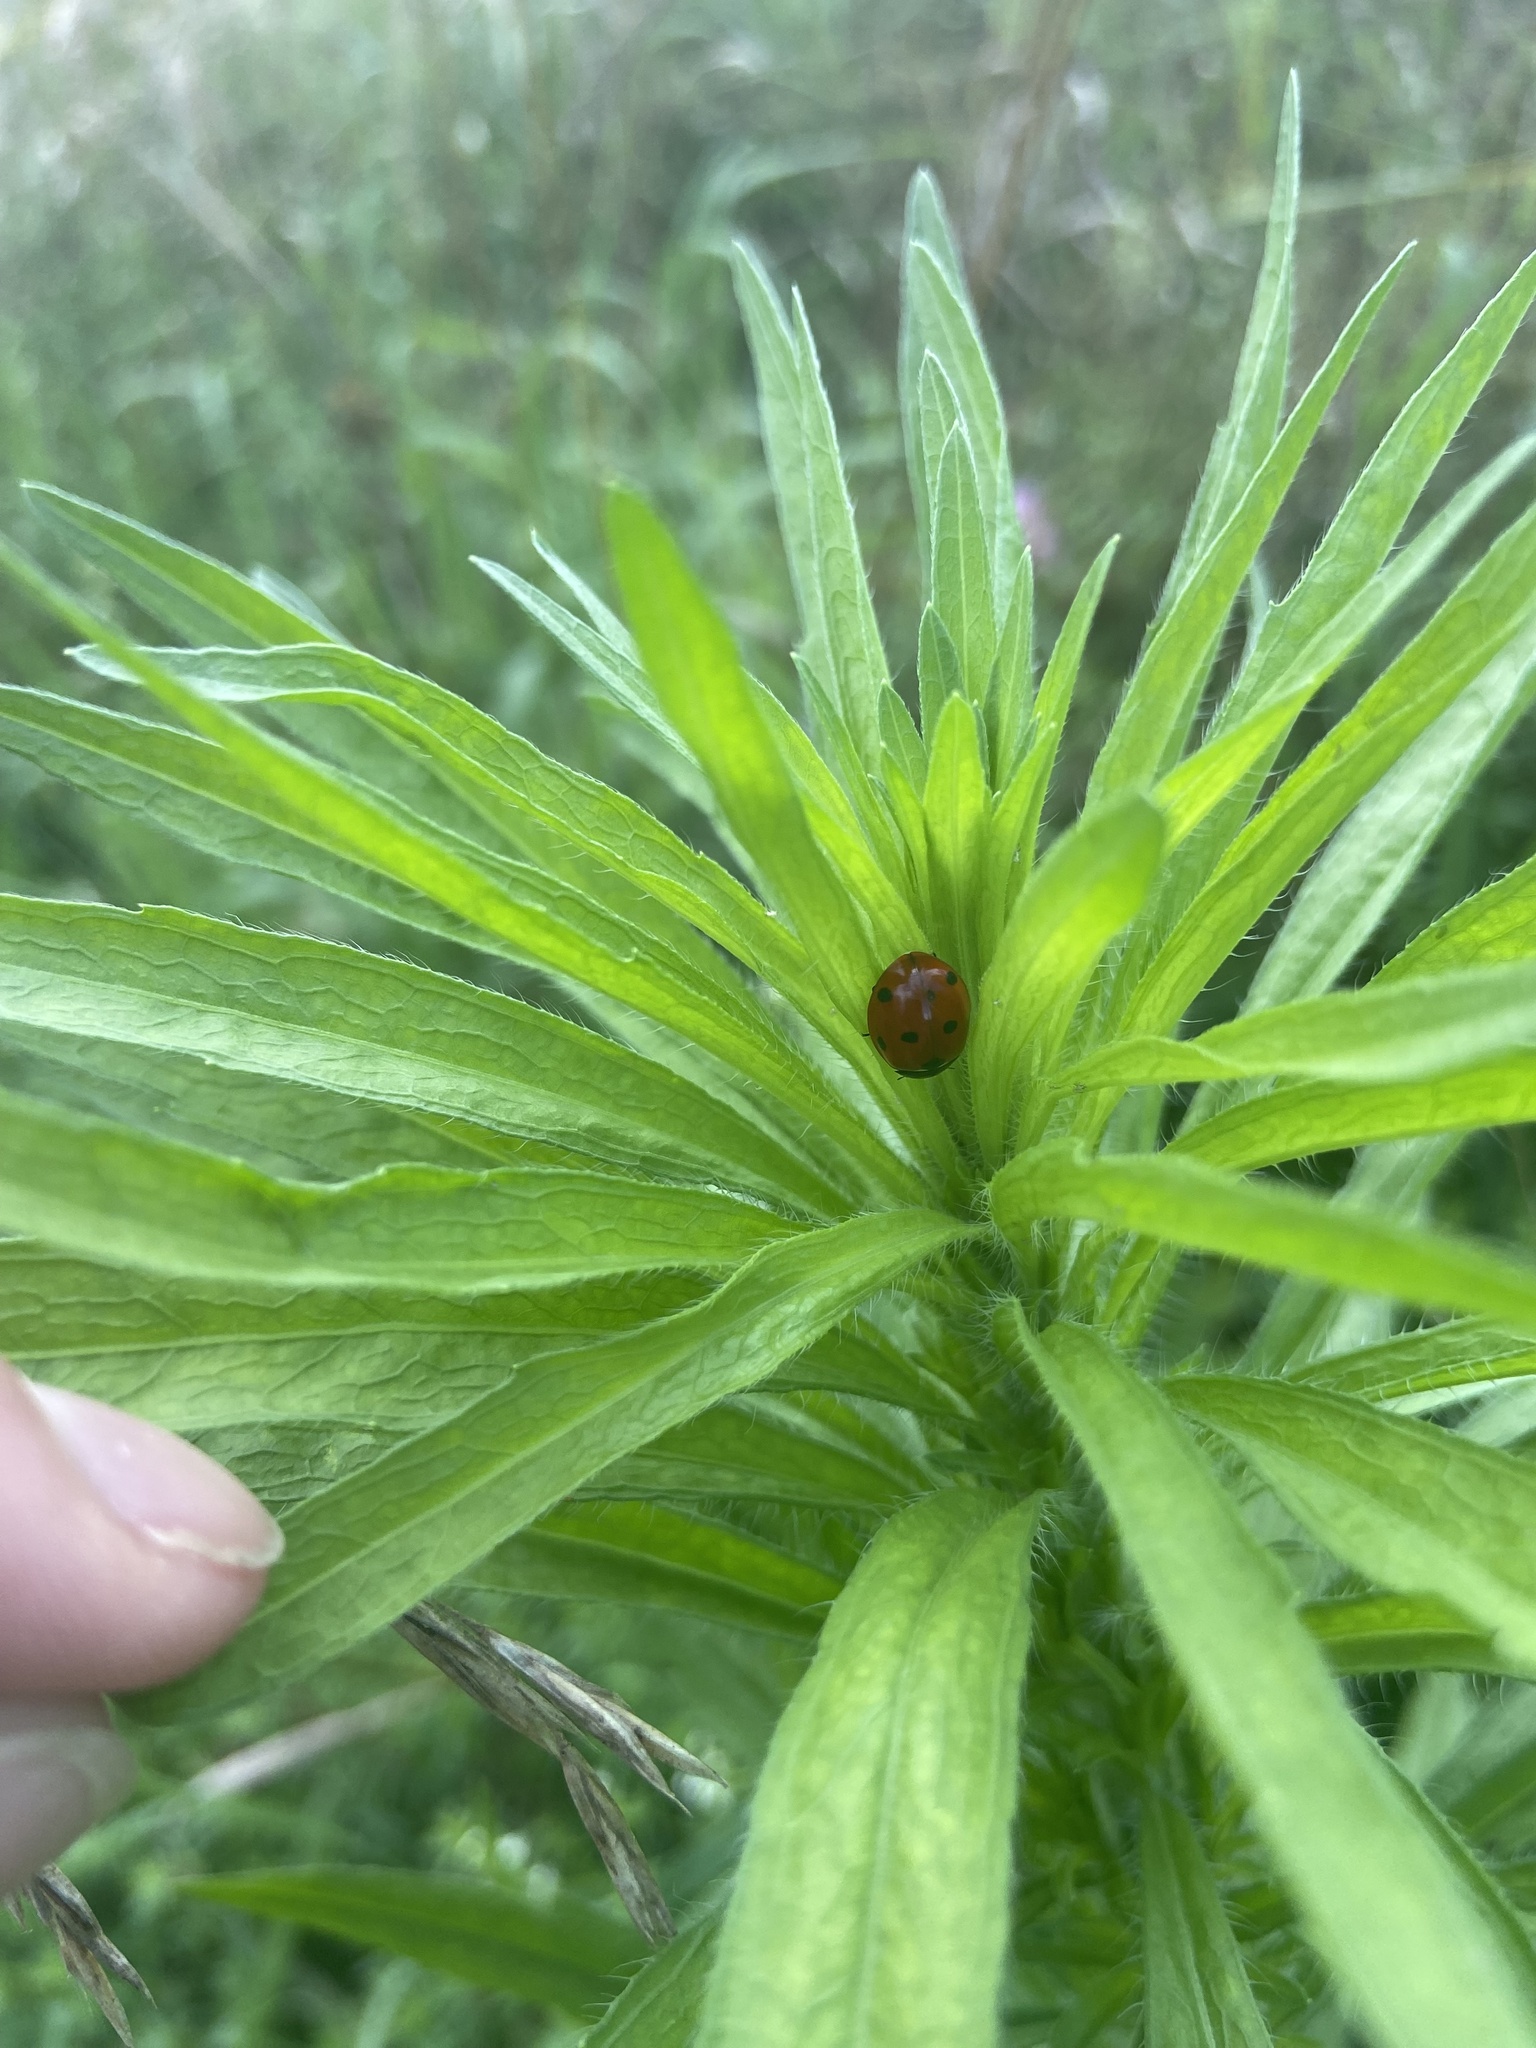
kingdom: Animalia
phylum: Arthropoda
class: Insecta
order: Coleoptera
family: Coccinellidae
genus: Coccinella
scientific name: Coccinella septempunctata
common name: Sevenspotted lady beetle
